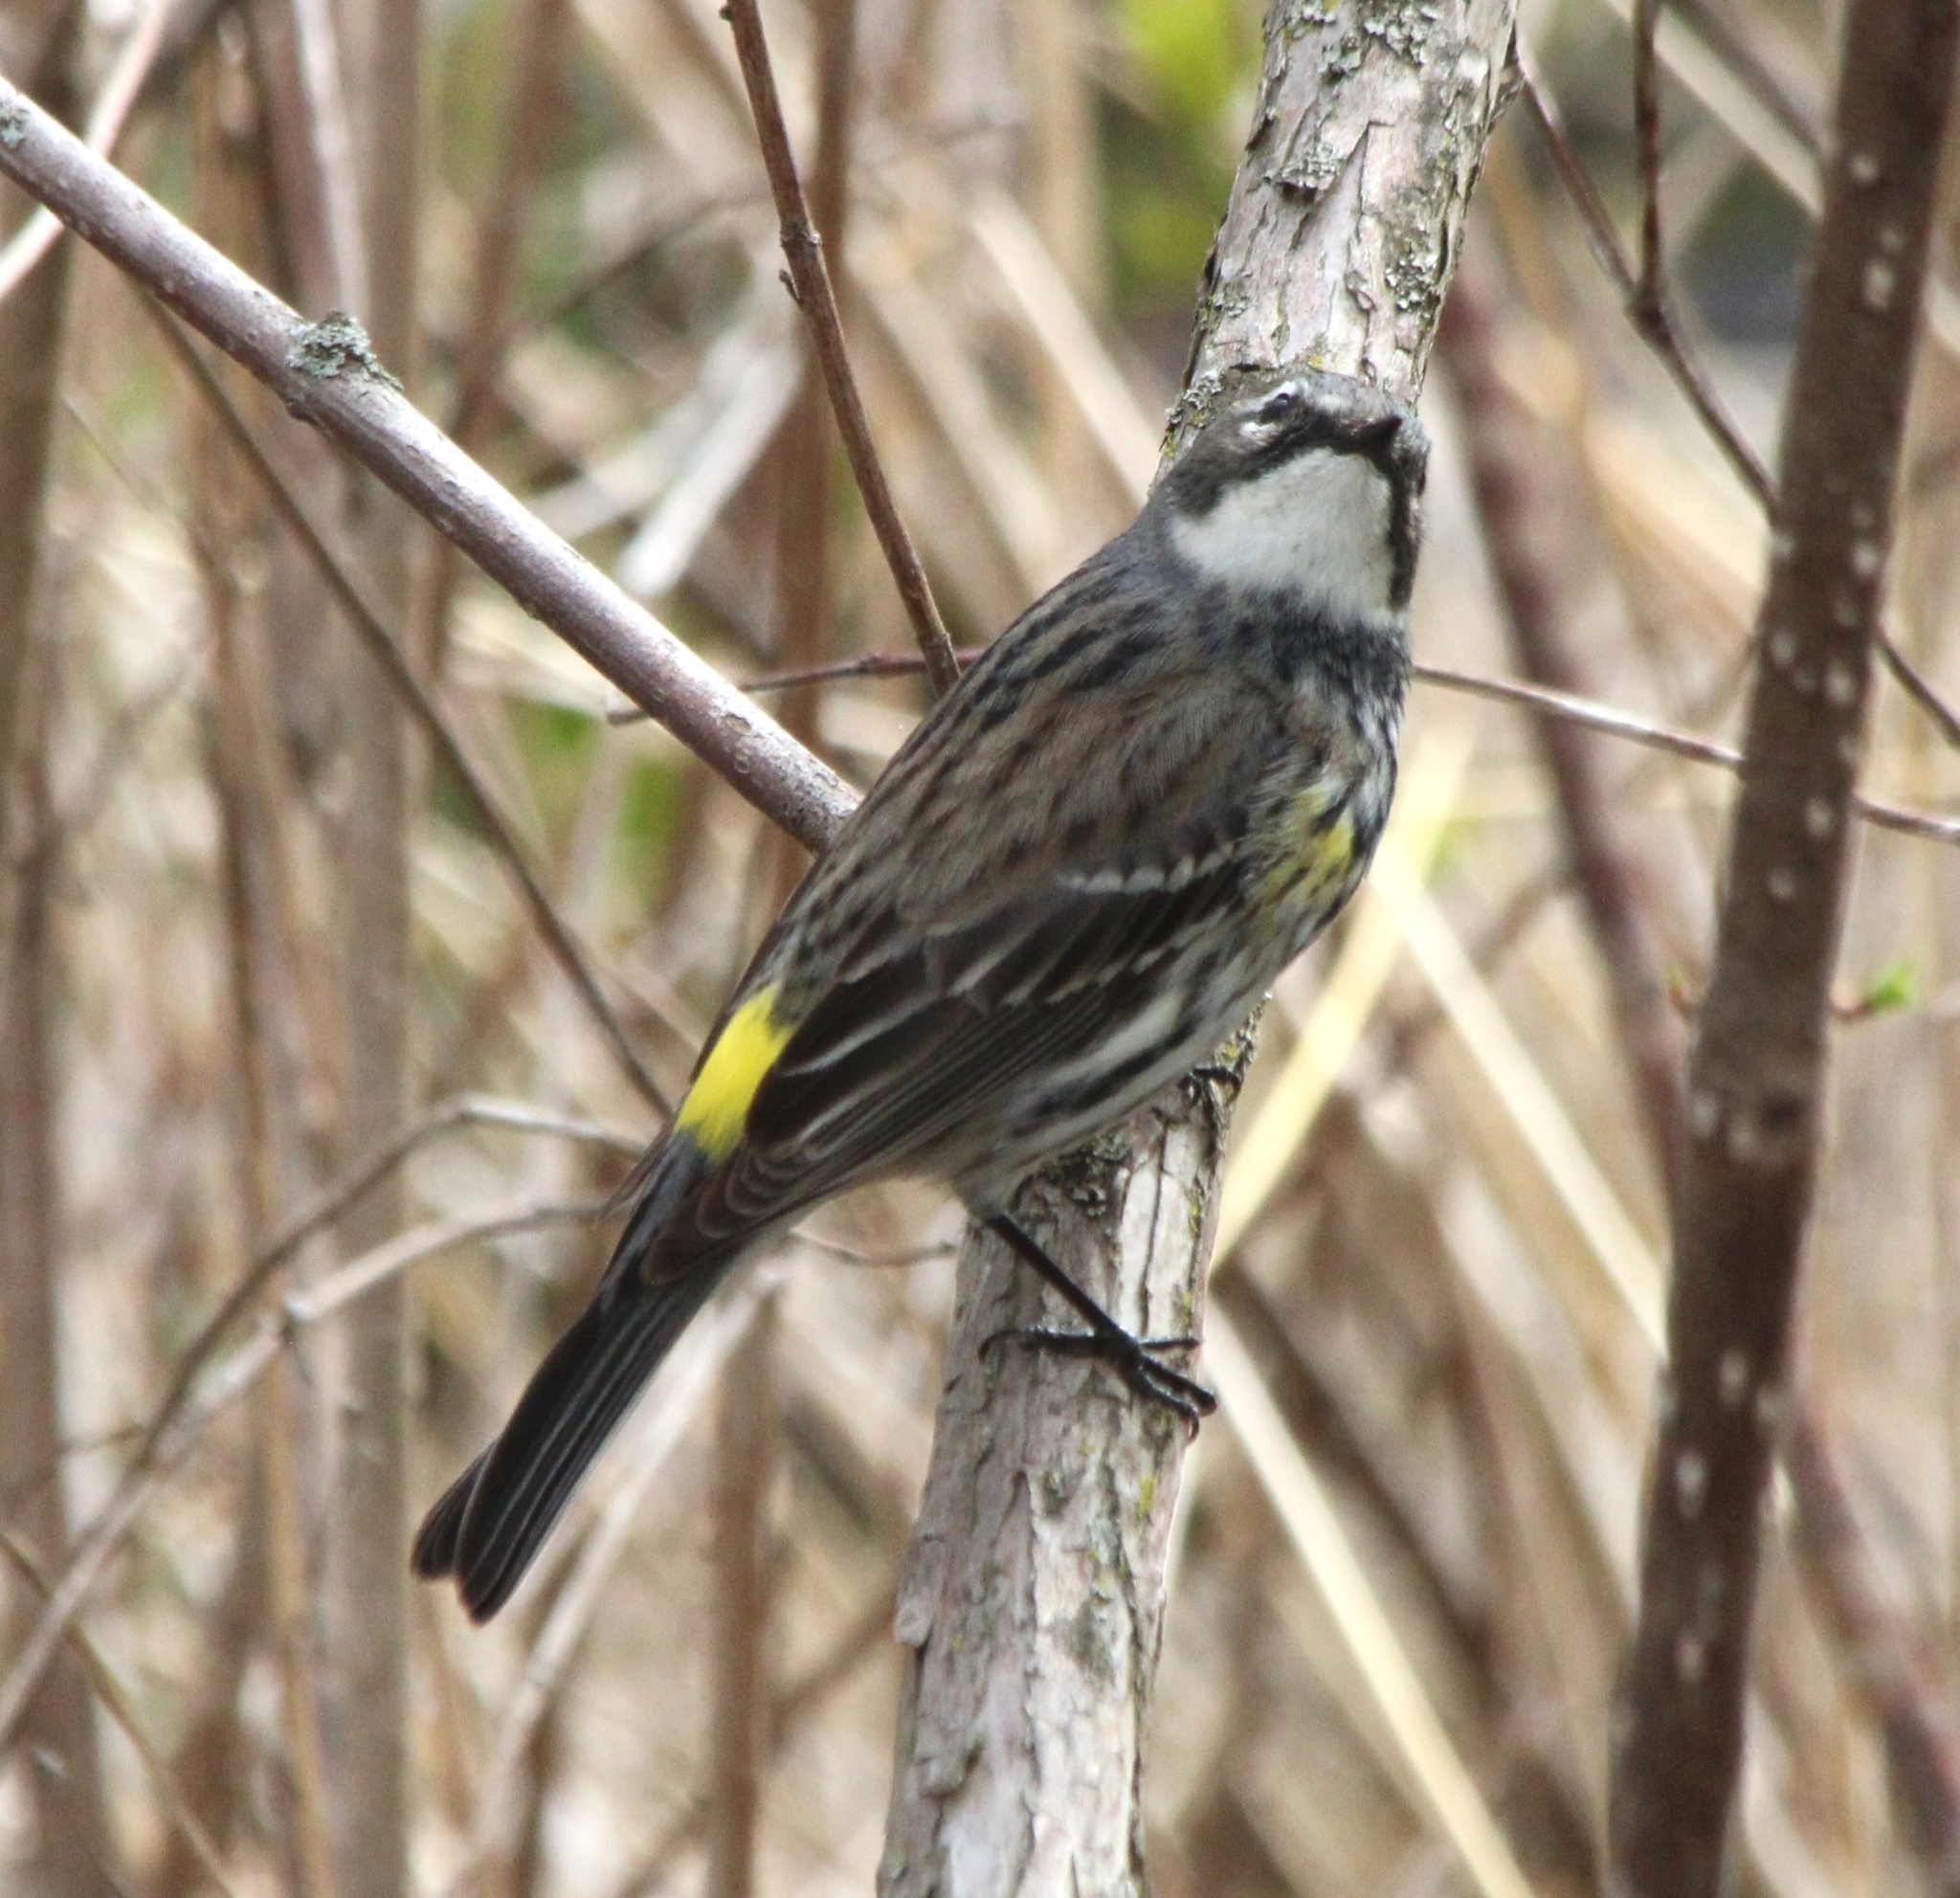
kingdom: Animalia
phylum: Chordata
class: Aves
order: Passeriformes
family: Parulidae
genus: Setophaga
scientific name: Setophaga coronata
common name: Myrtle warbler
